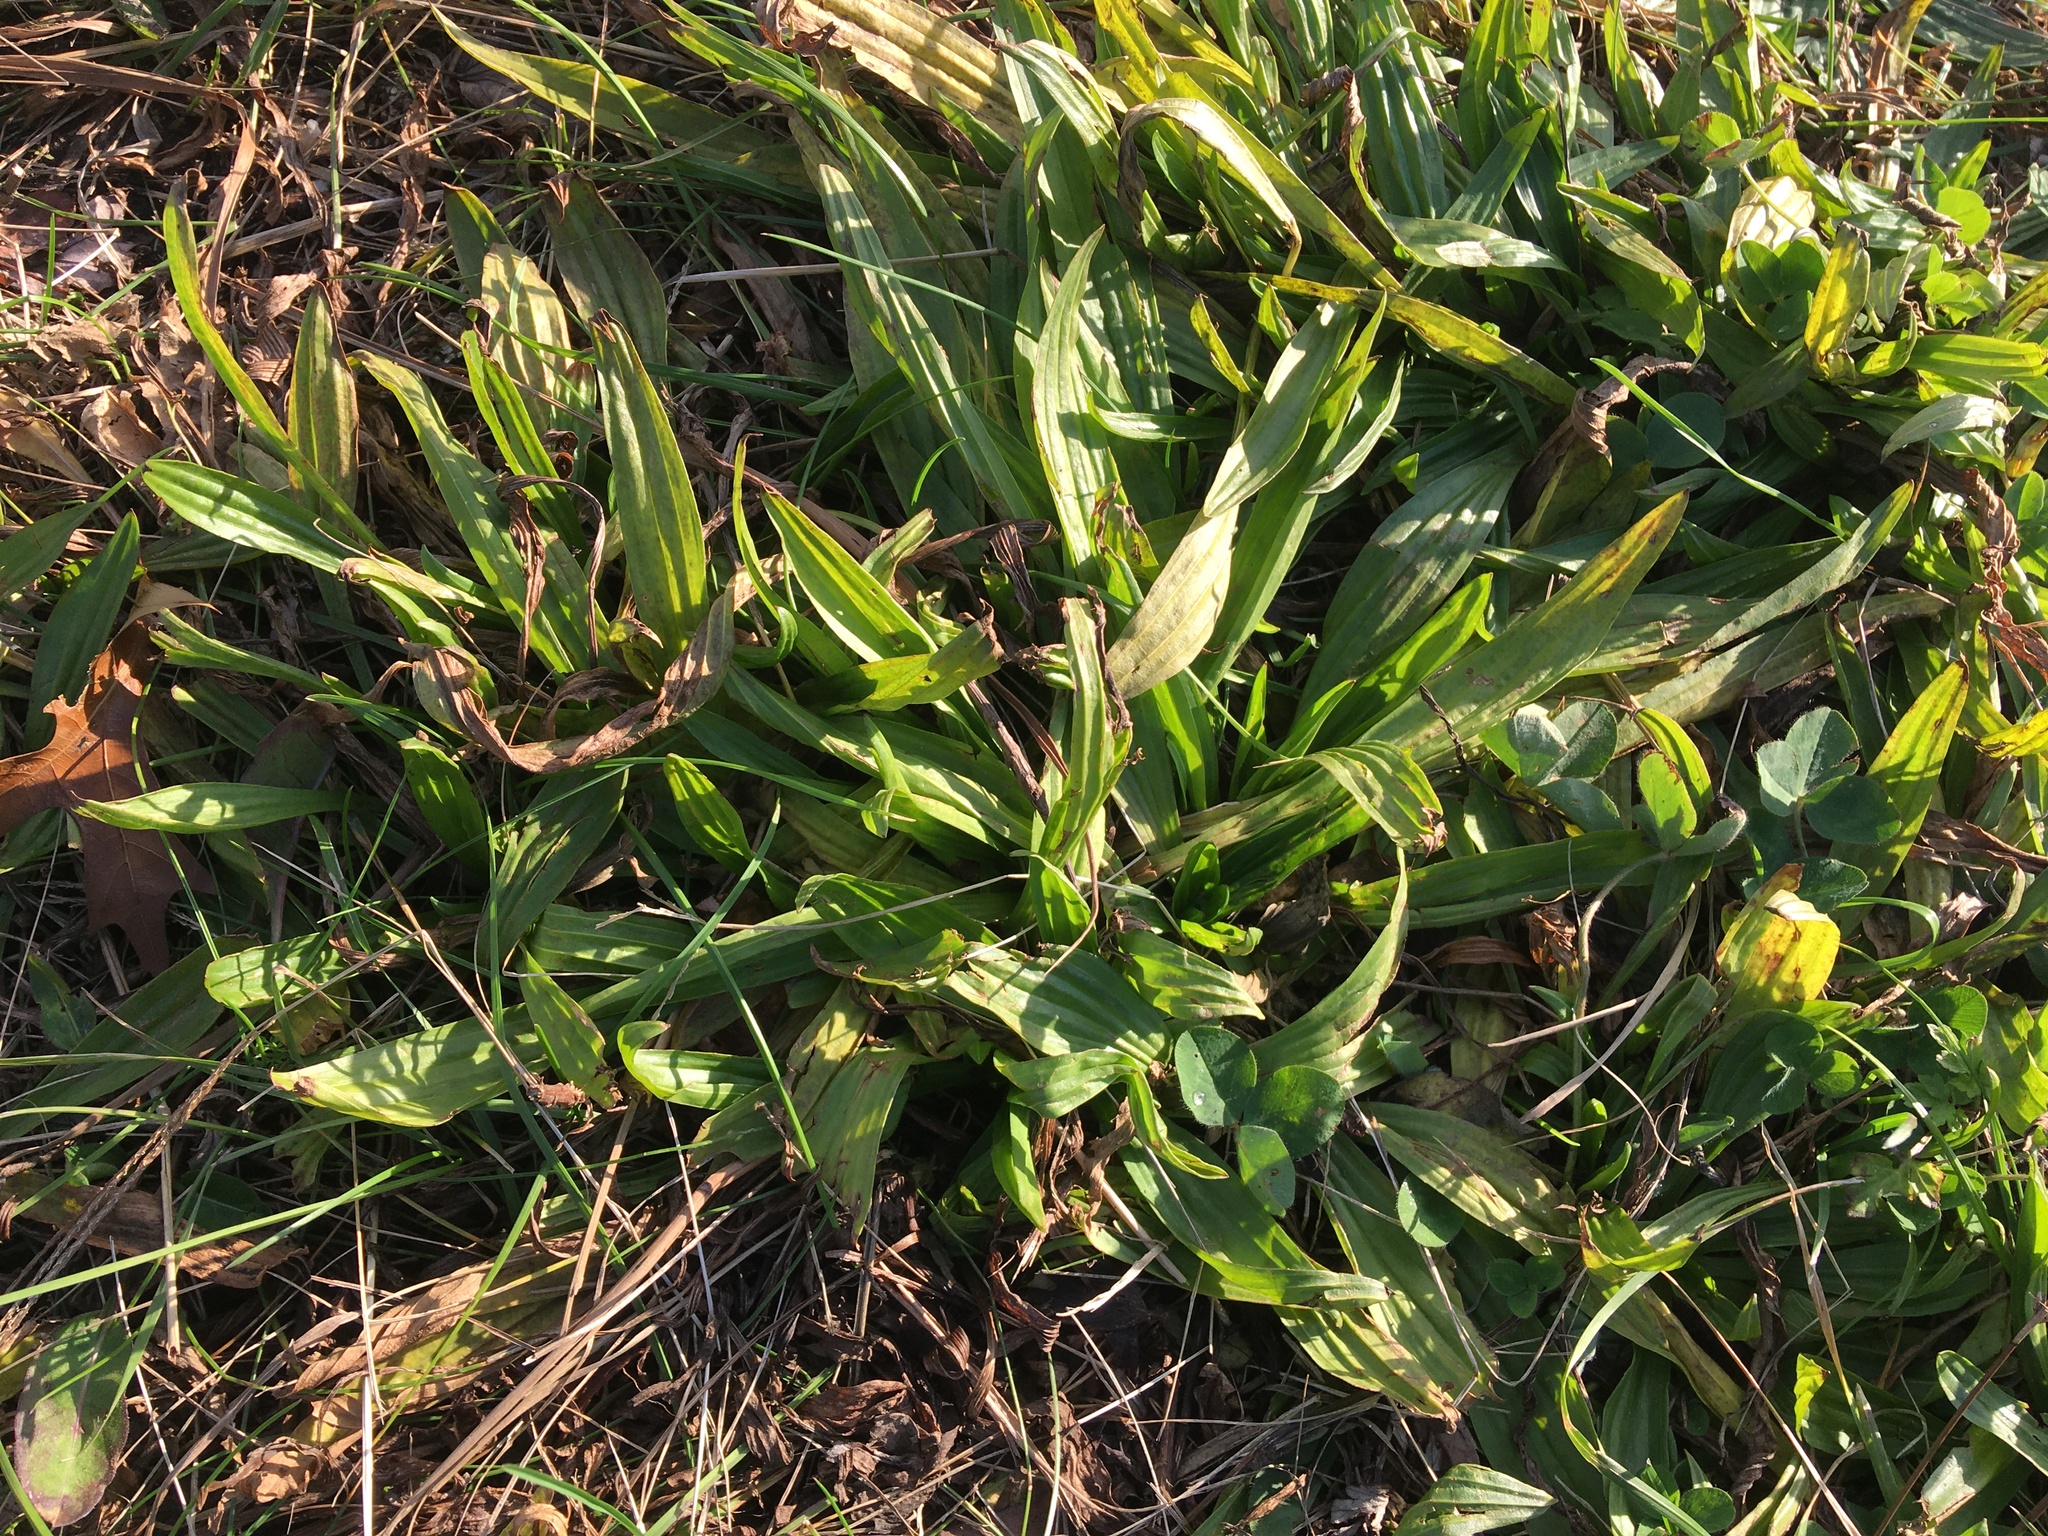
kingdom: Plantae
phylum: Tracheophyta
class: Magnoliopsida
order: Lamiales
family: Plantaginaceae
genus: Plantago
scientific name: Plantago lanceolata
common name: Ribwort plantain
